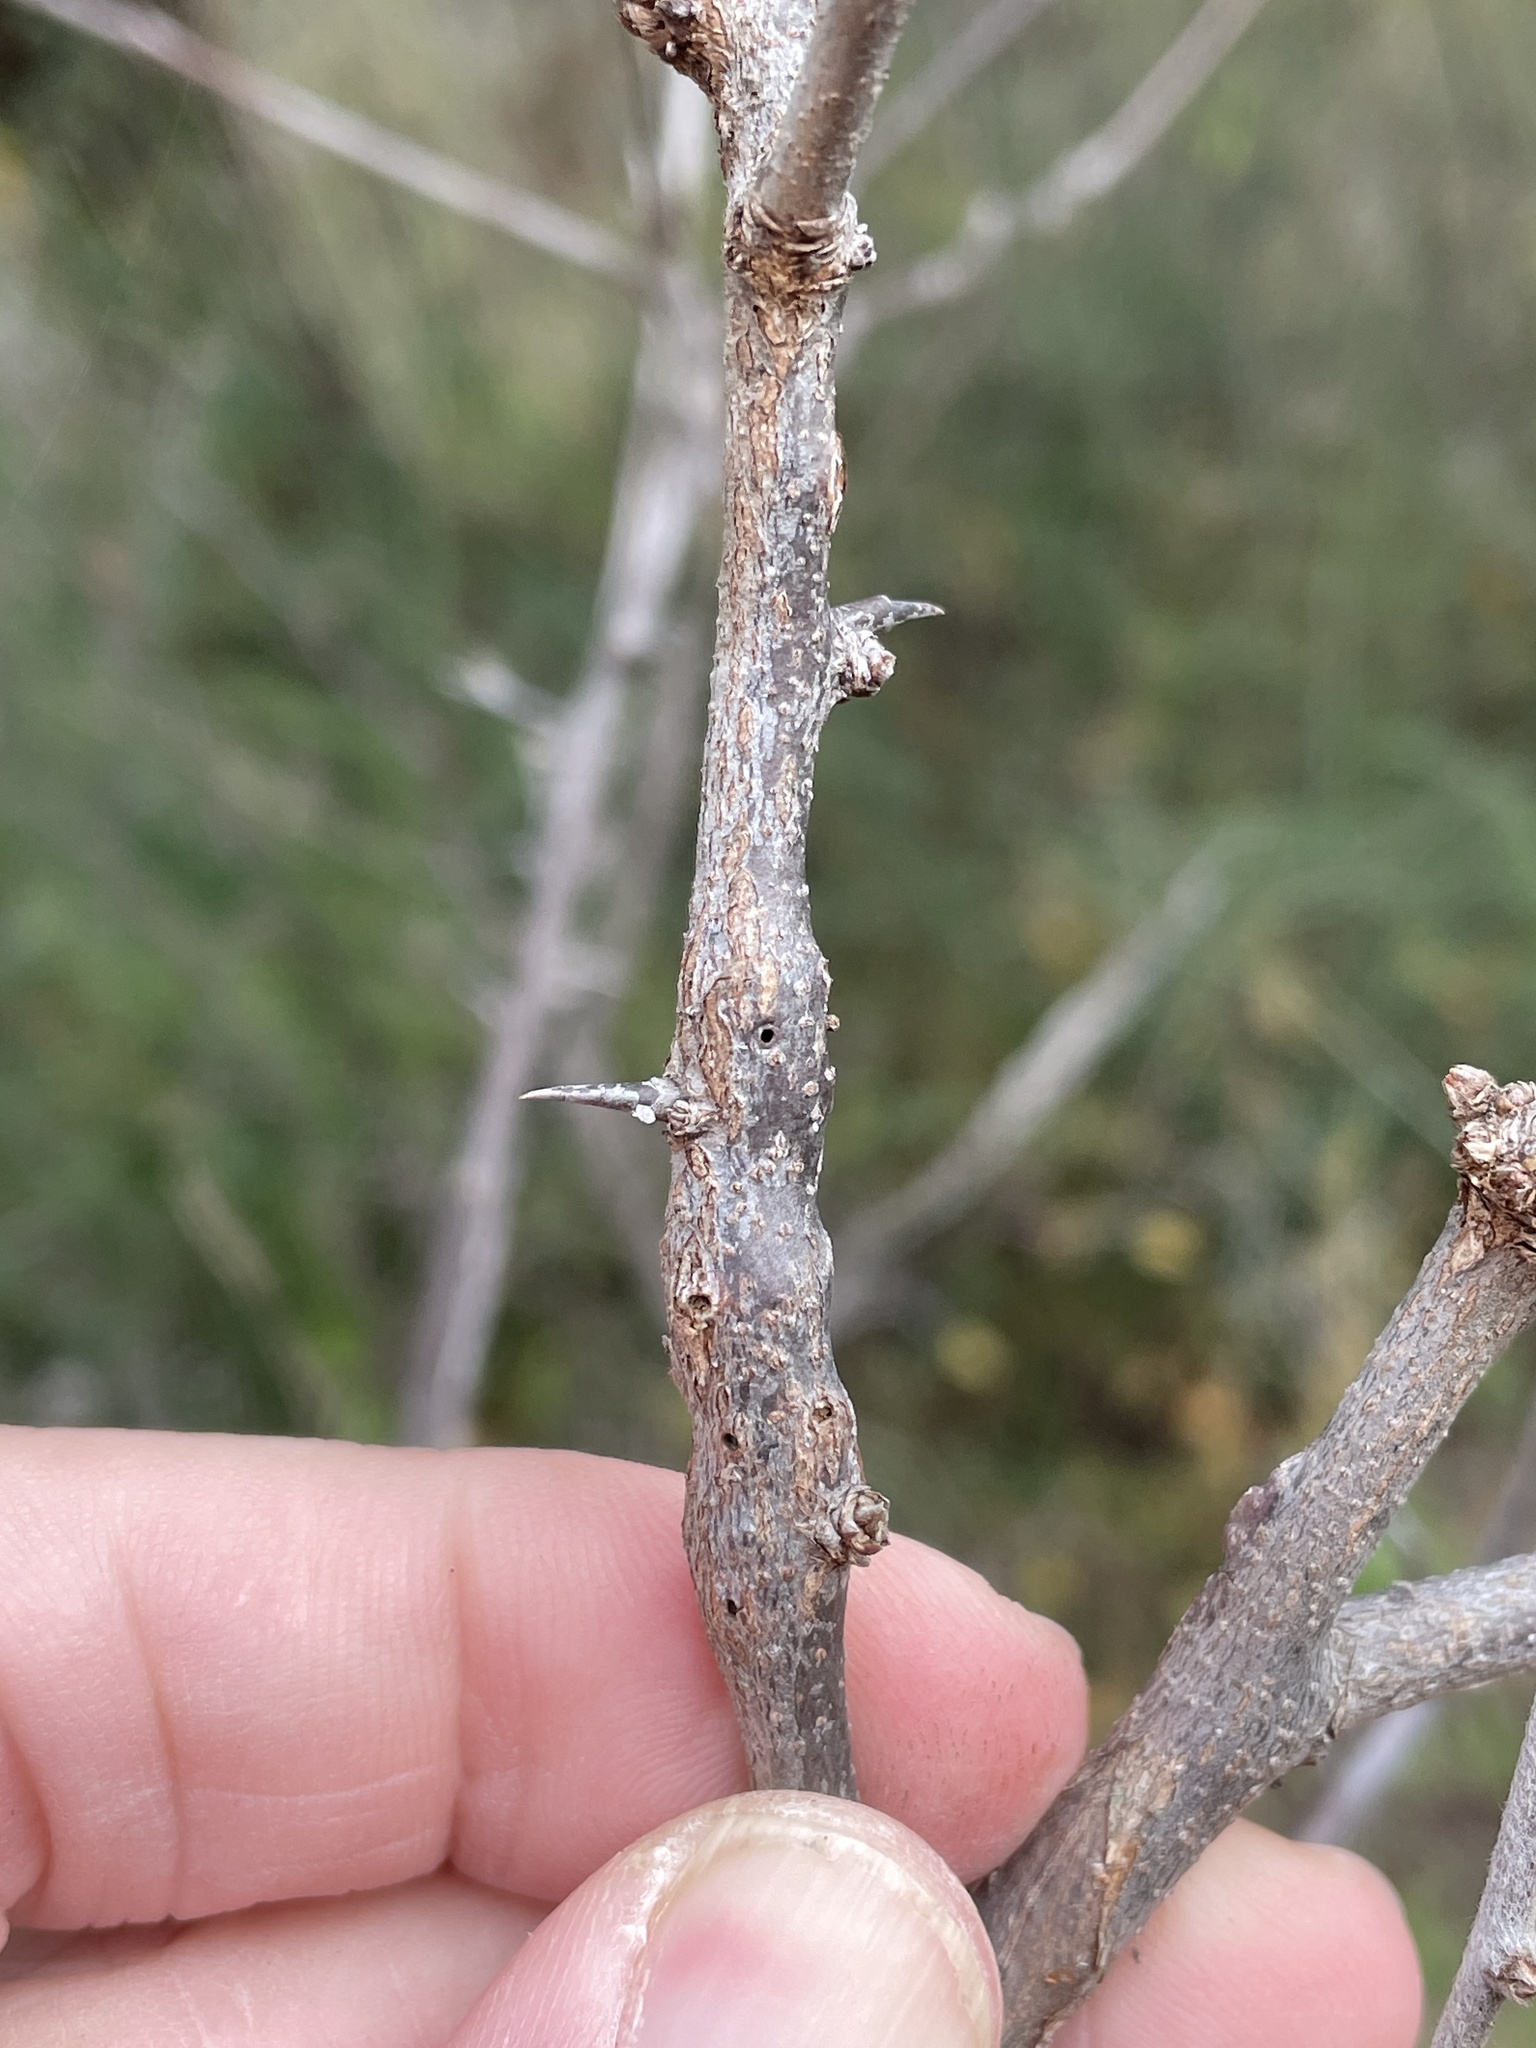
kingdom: Animalia
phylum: Arthropoda
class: Insecta
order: Diptera
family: Cecidomyiidae
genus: Bruggmanniella
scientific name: Bruggmanniella bumeliae
